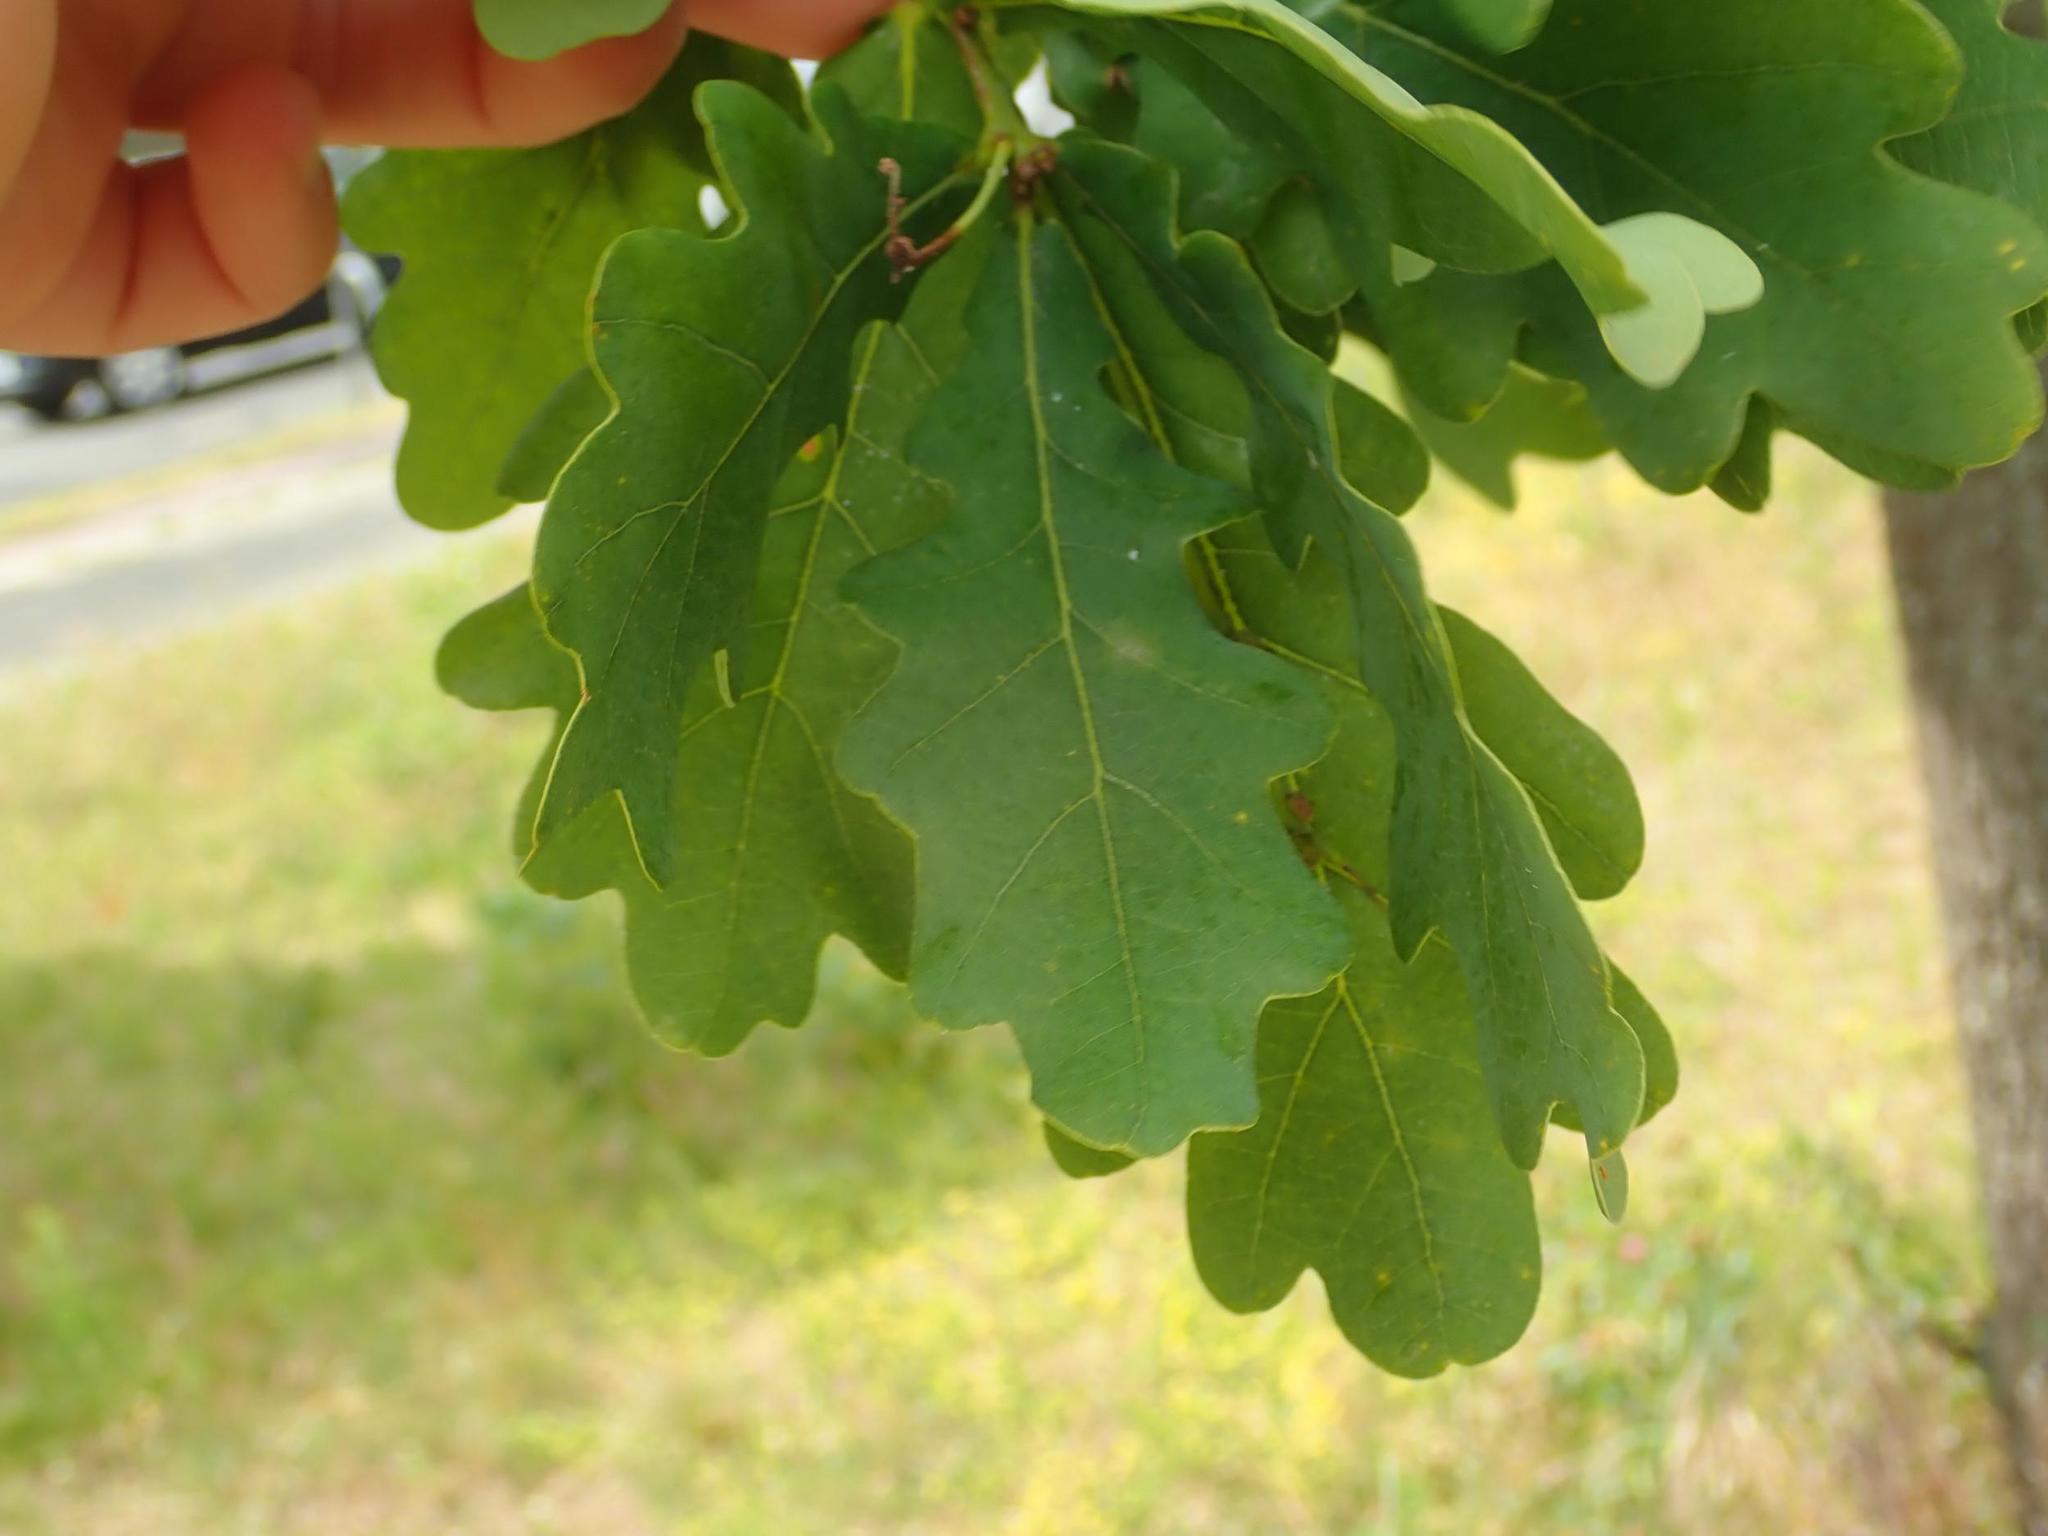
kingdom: Plantae
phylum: Tracheophyta
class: Magnoliopsida
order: Fagales
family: Fagaceae
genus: Quercus
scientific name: Quercus robur
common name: Pedunculate oak
